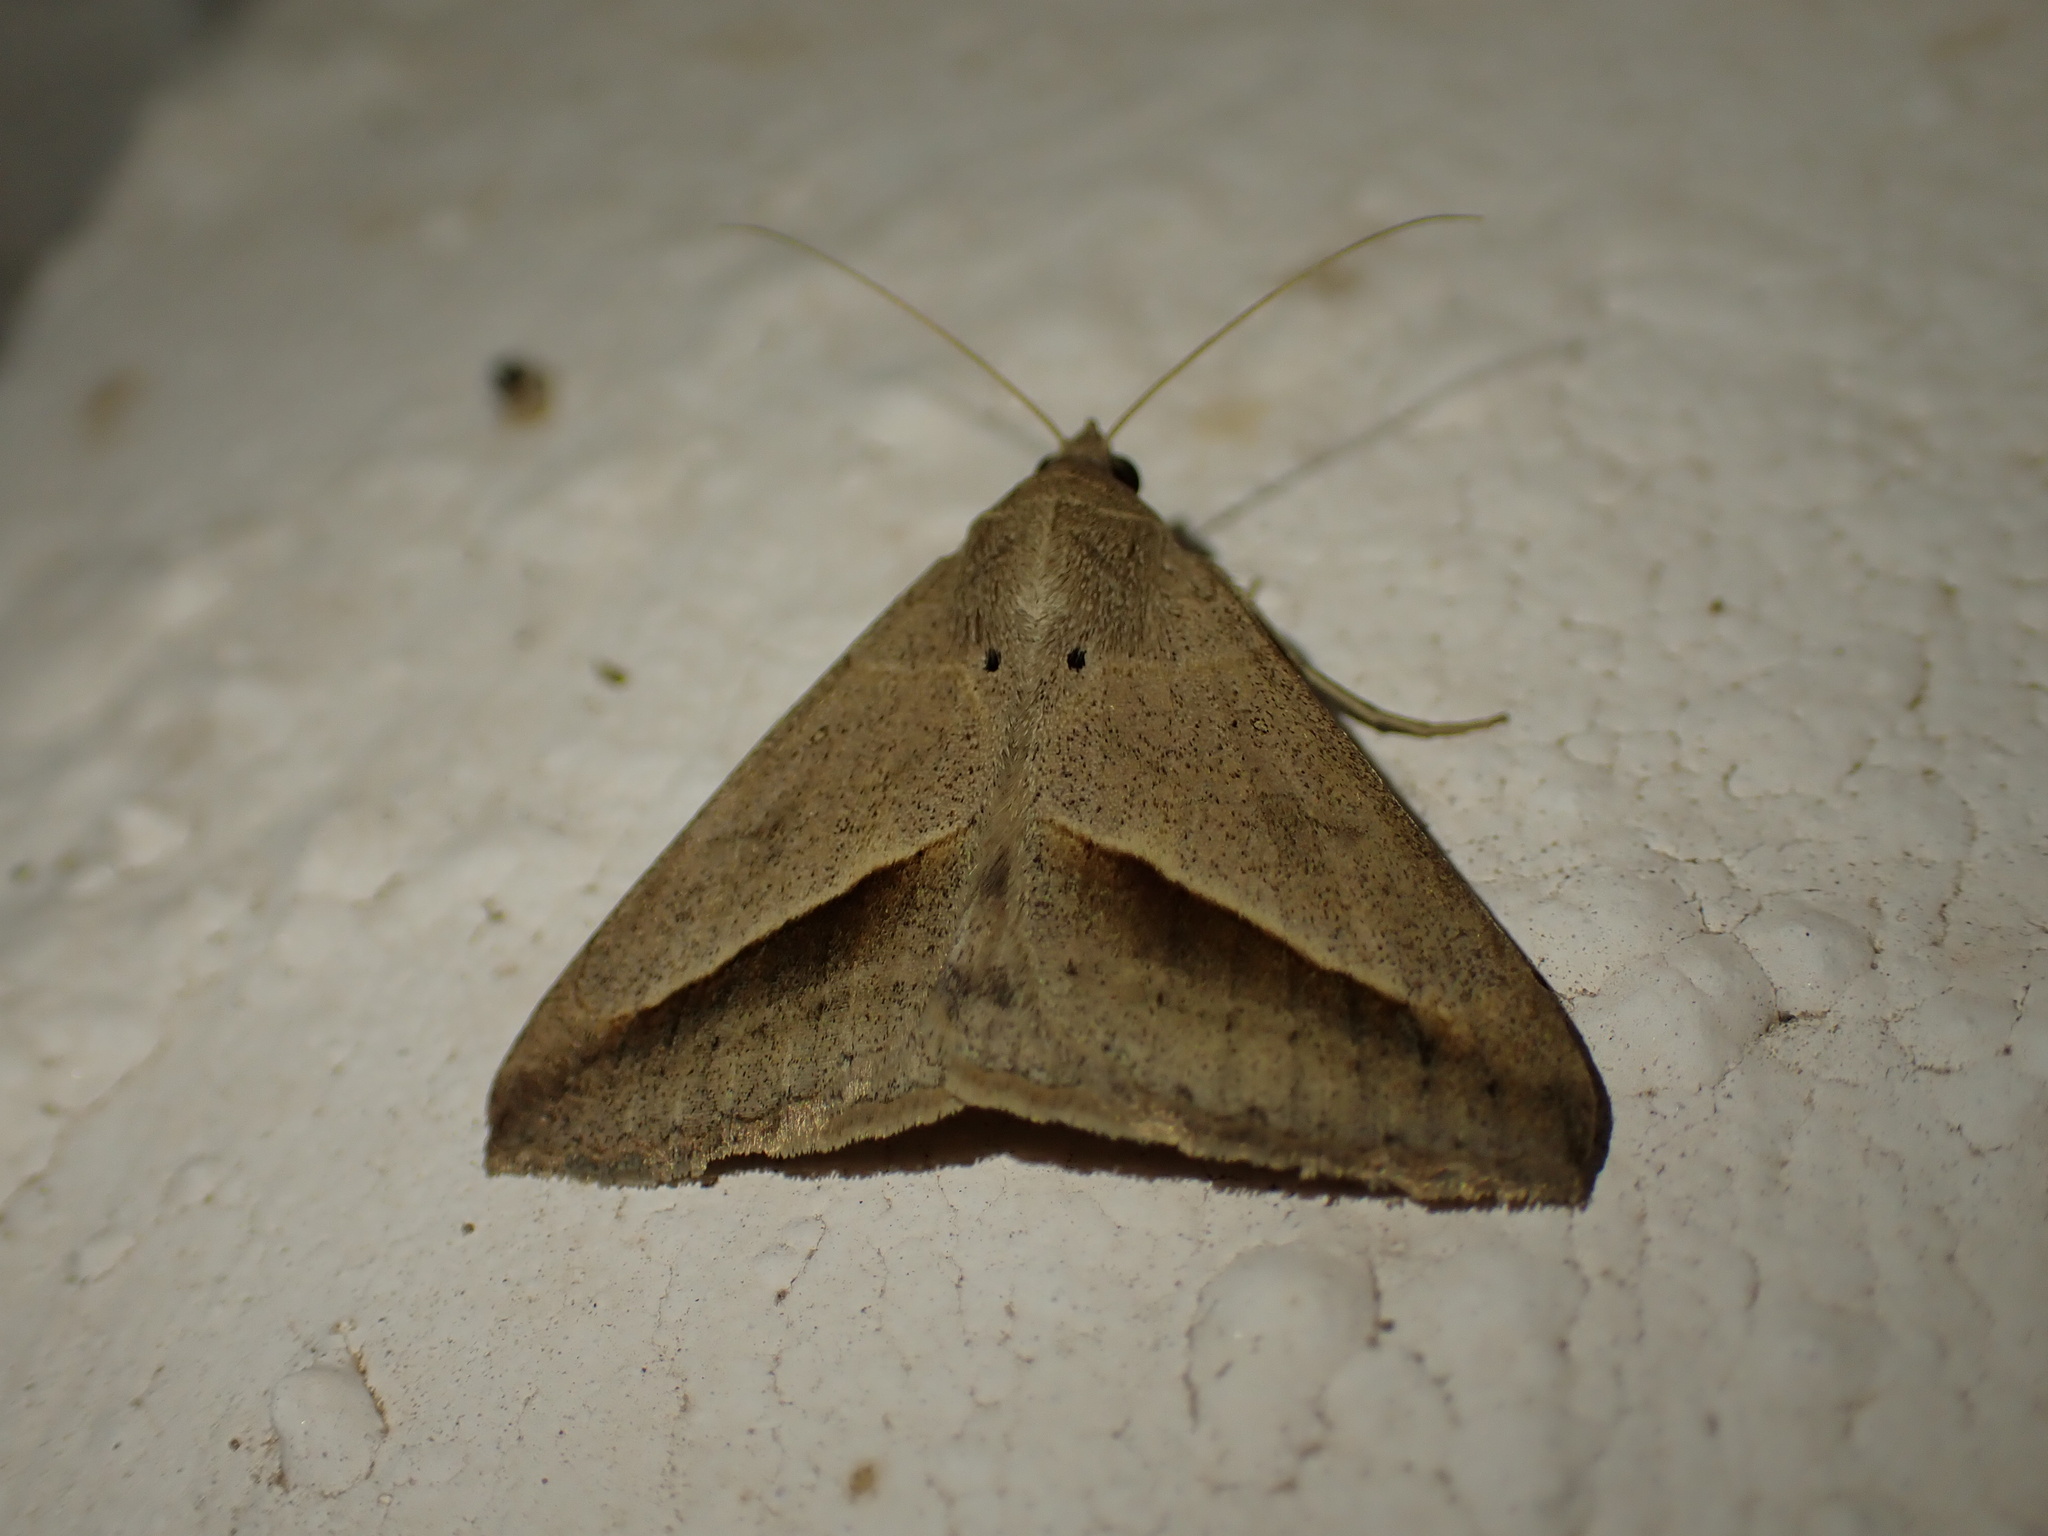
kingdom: Animalia
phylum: Arthropoda
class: Insecta
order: Lepidoptera
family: Erebidae
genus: Mocis
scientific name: Mocis frugalis
